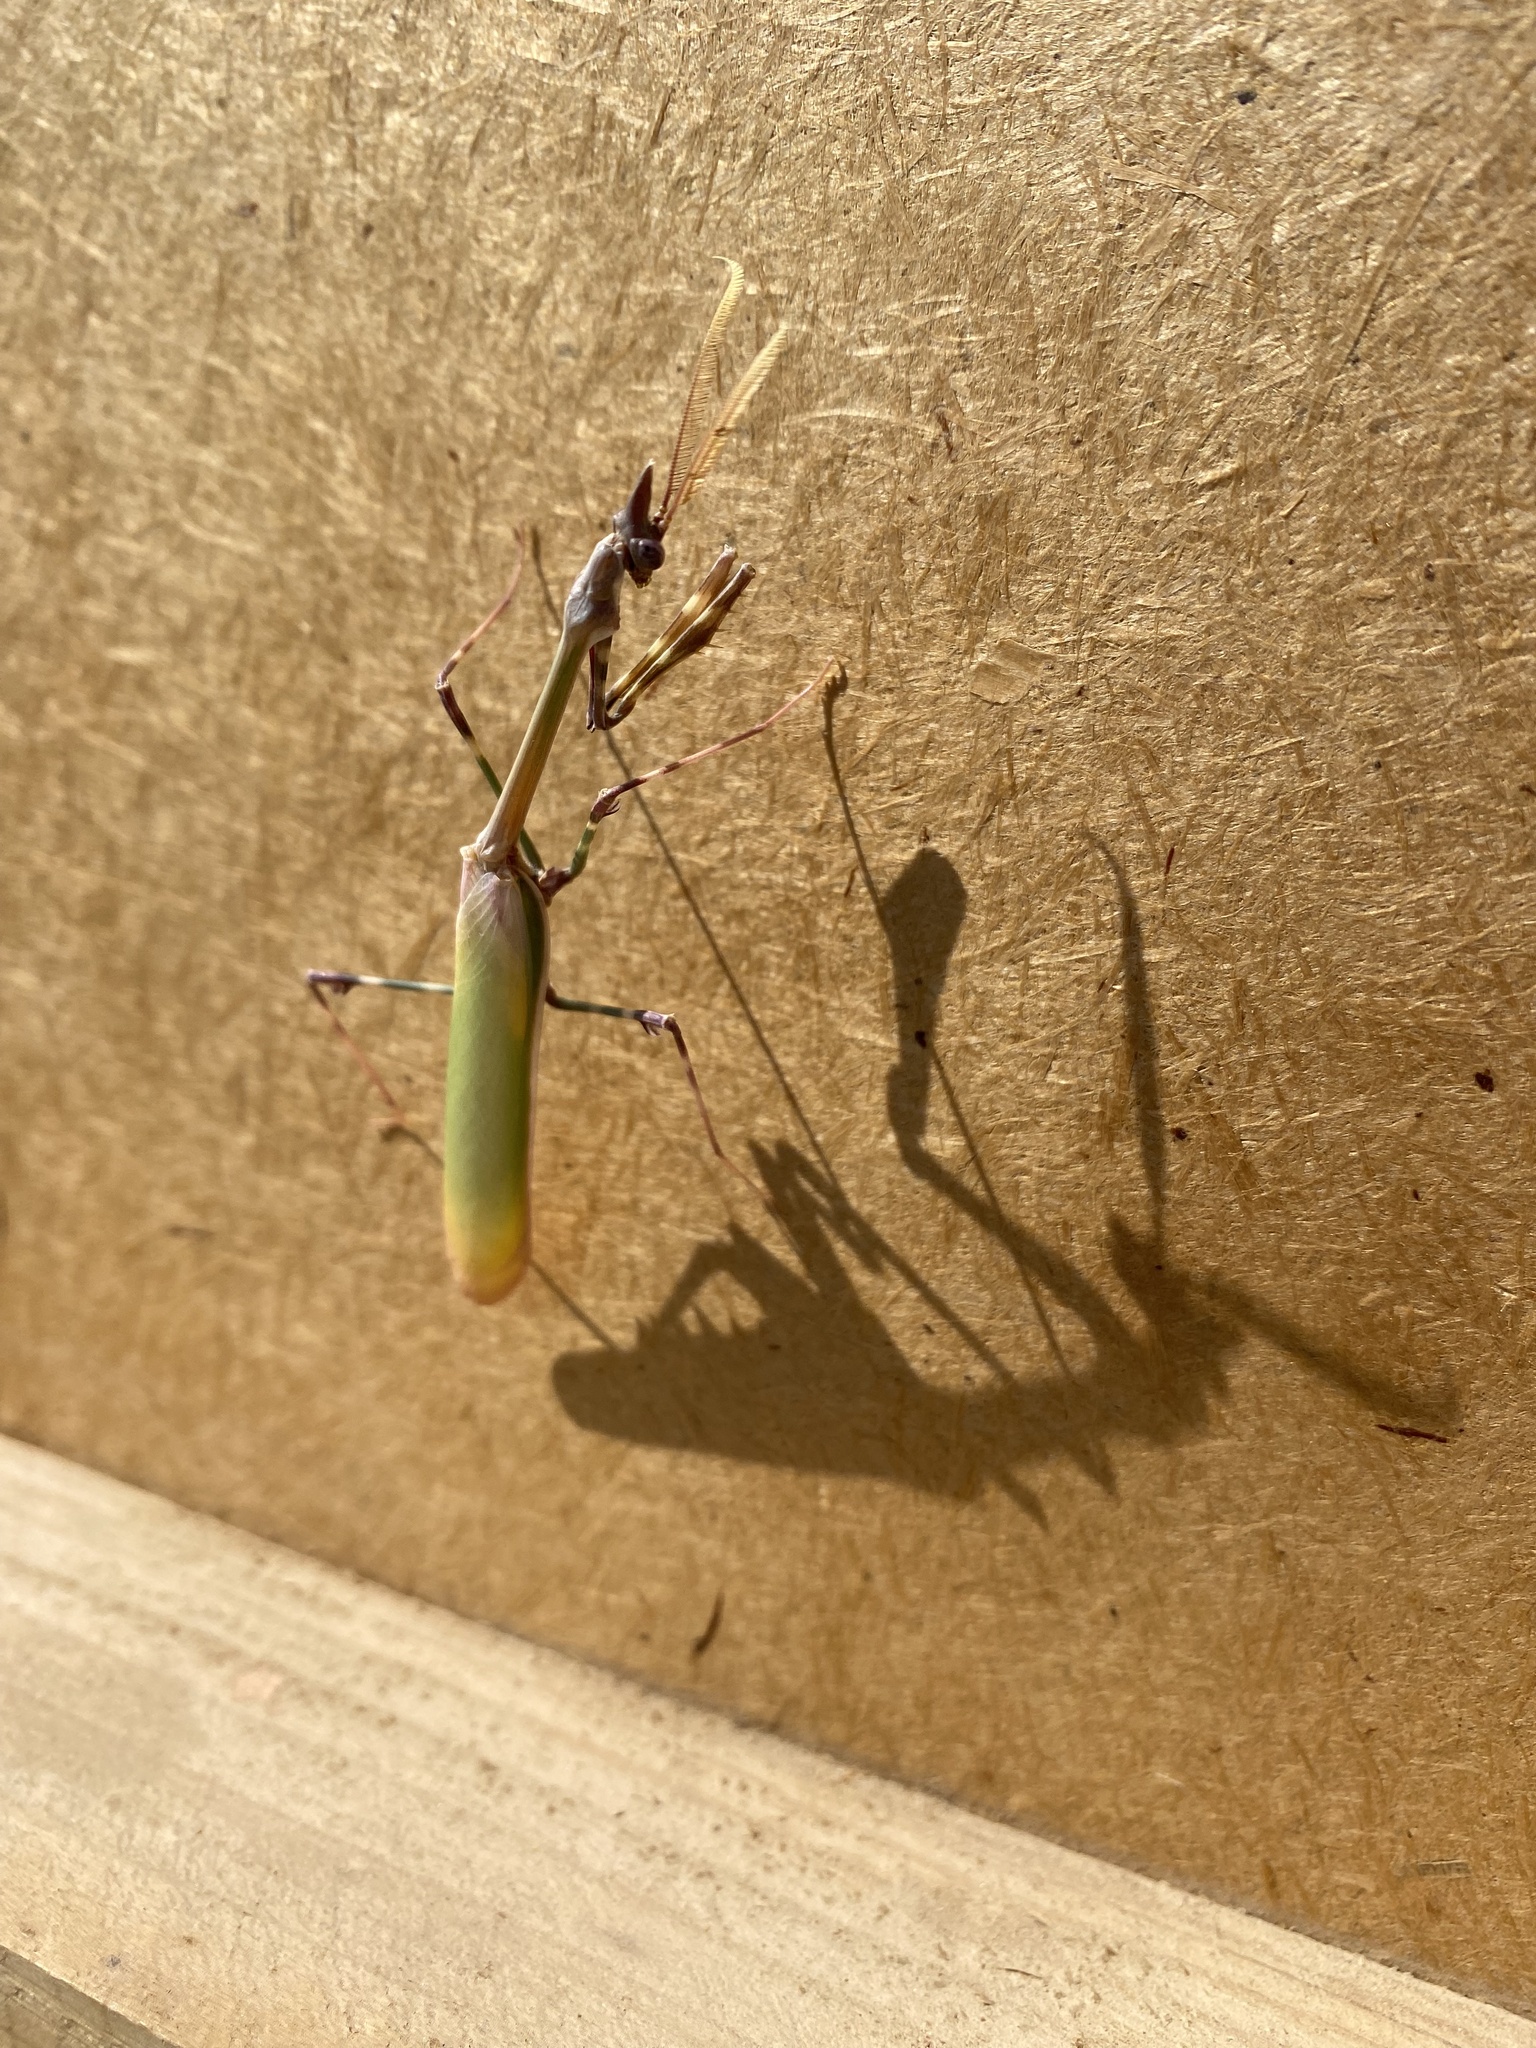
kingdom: Animalia
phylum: Arthropoda
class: Insecta
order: Mantodea
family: Empusidae
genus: Empusa
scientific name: Empusa pennicornis
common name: Conehead mantis
